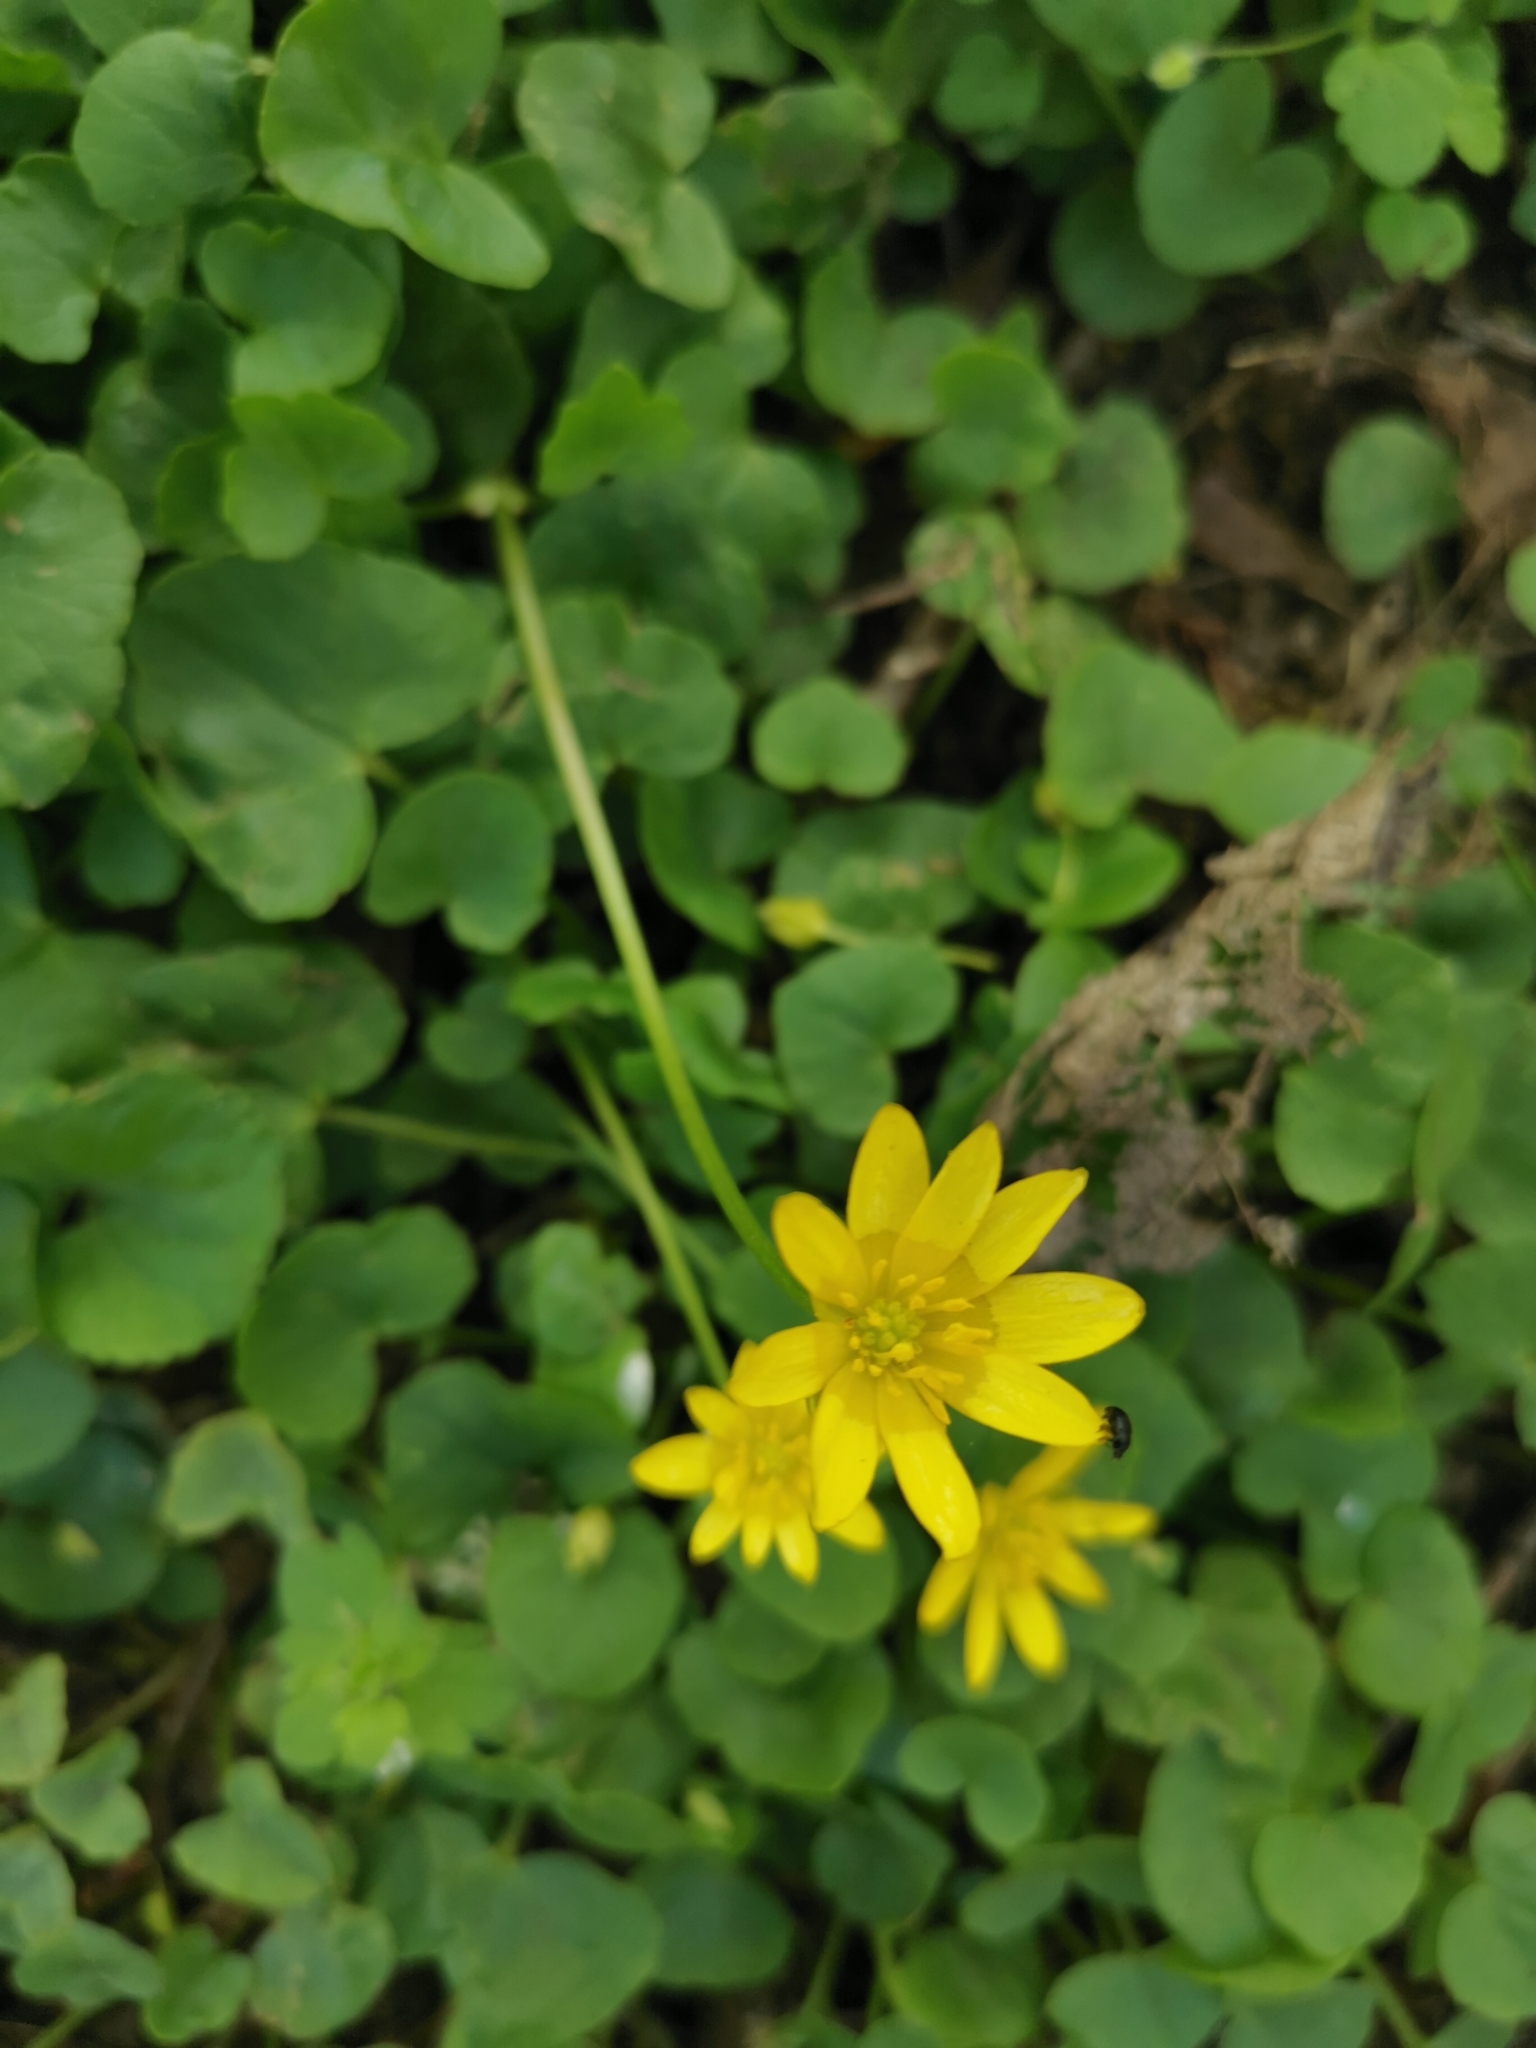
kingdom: Plantae
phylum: Tracheophyta
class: Magnoliopsida
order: Ranunculales
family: Ranunculaceae
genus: Ficaria
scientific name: Ficaria verna
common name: Lesser celandine
